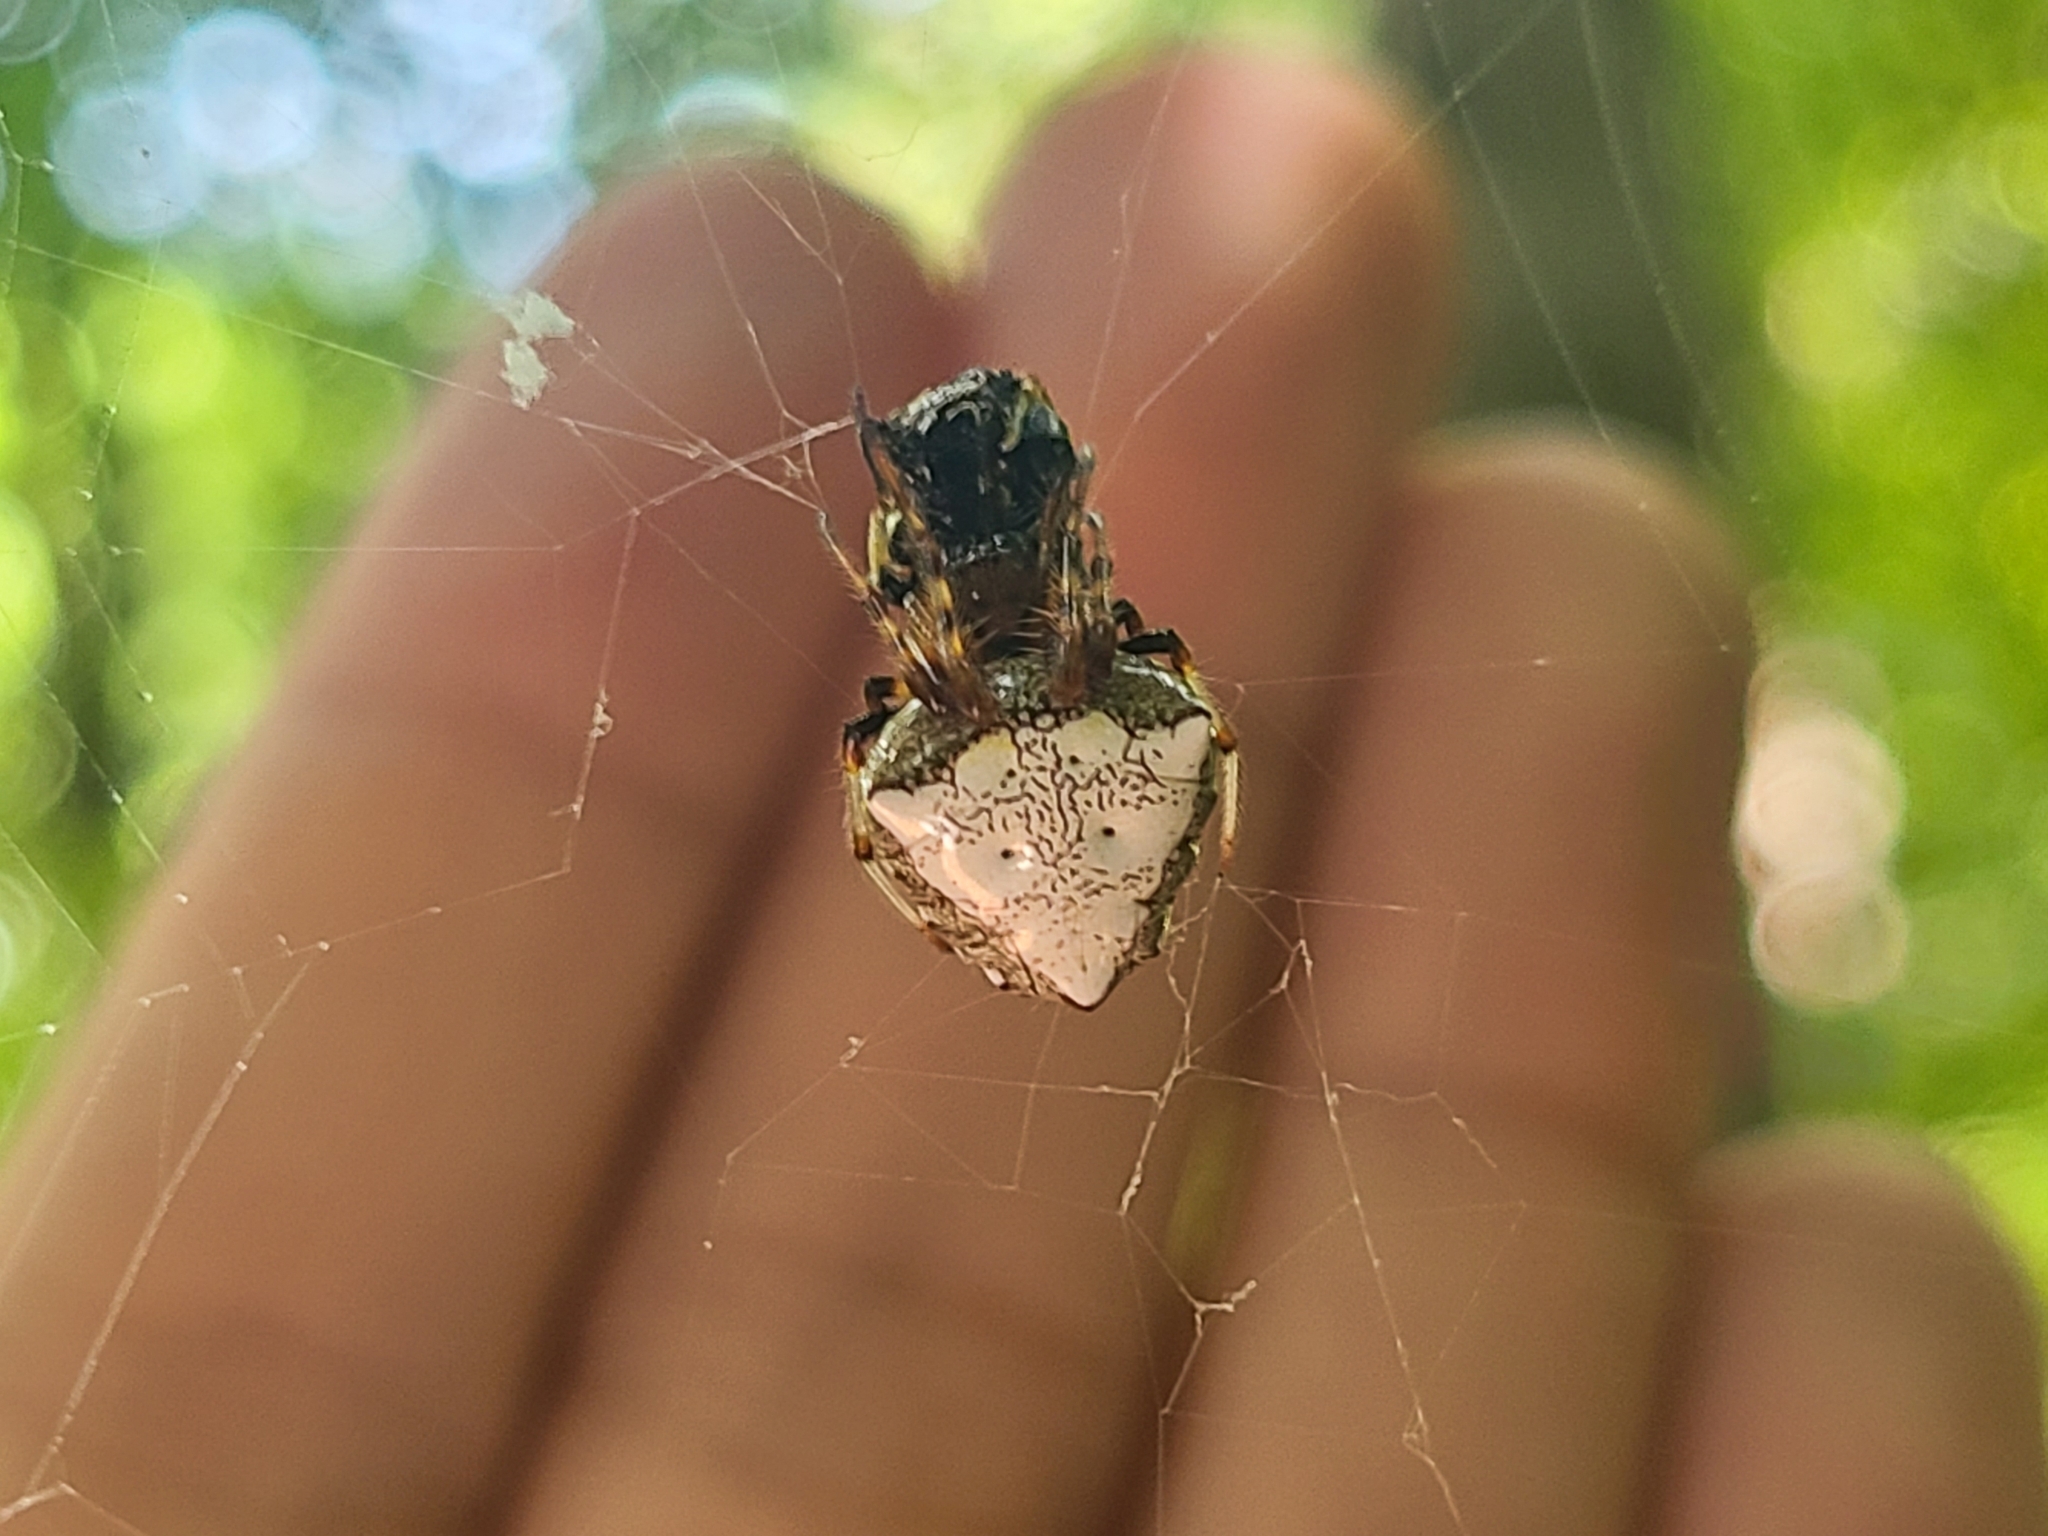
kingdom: Animalia
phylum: Arthropoda
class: Arachnida
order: Araneae
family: Araneidae
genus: Verrucosa
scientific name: Verrucosa arenata
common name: Orb weavers
